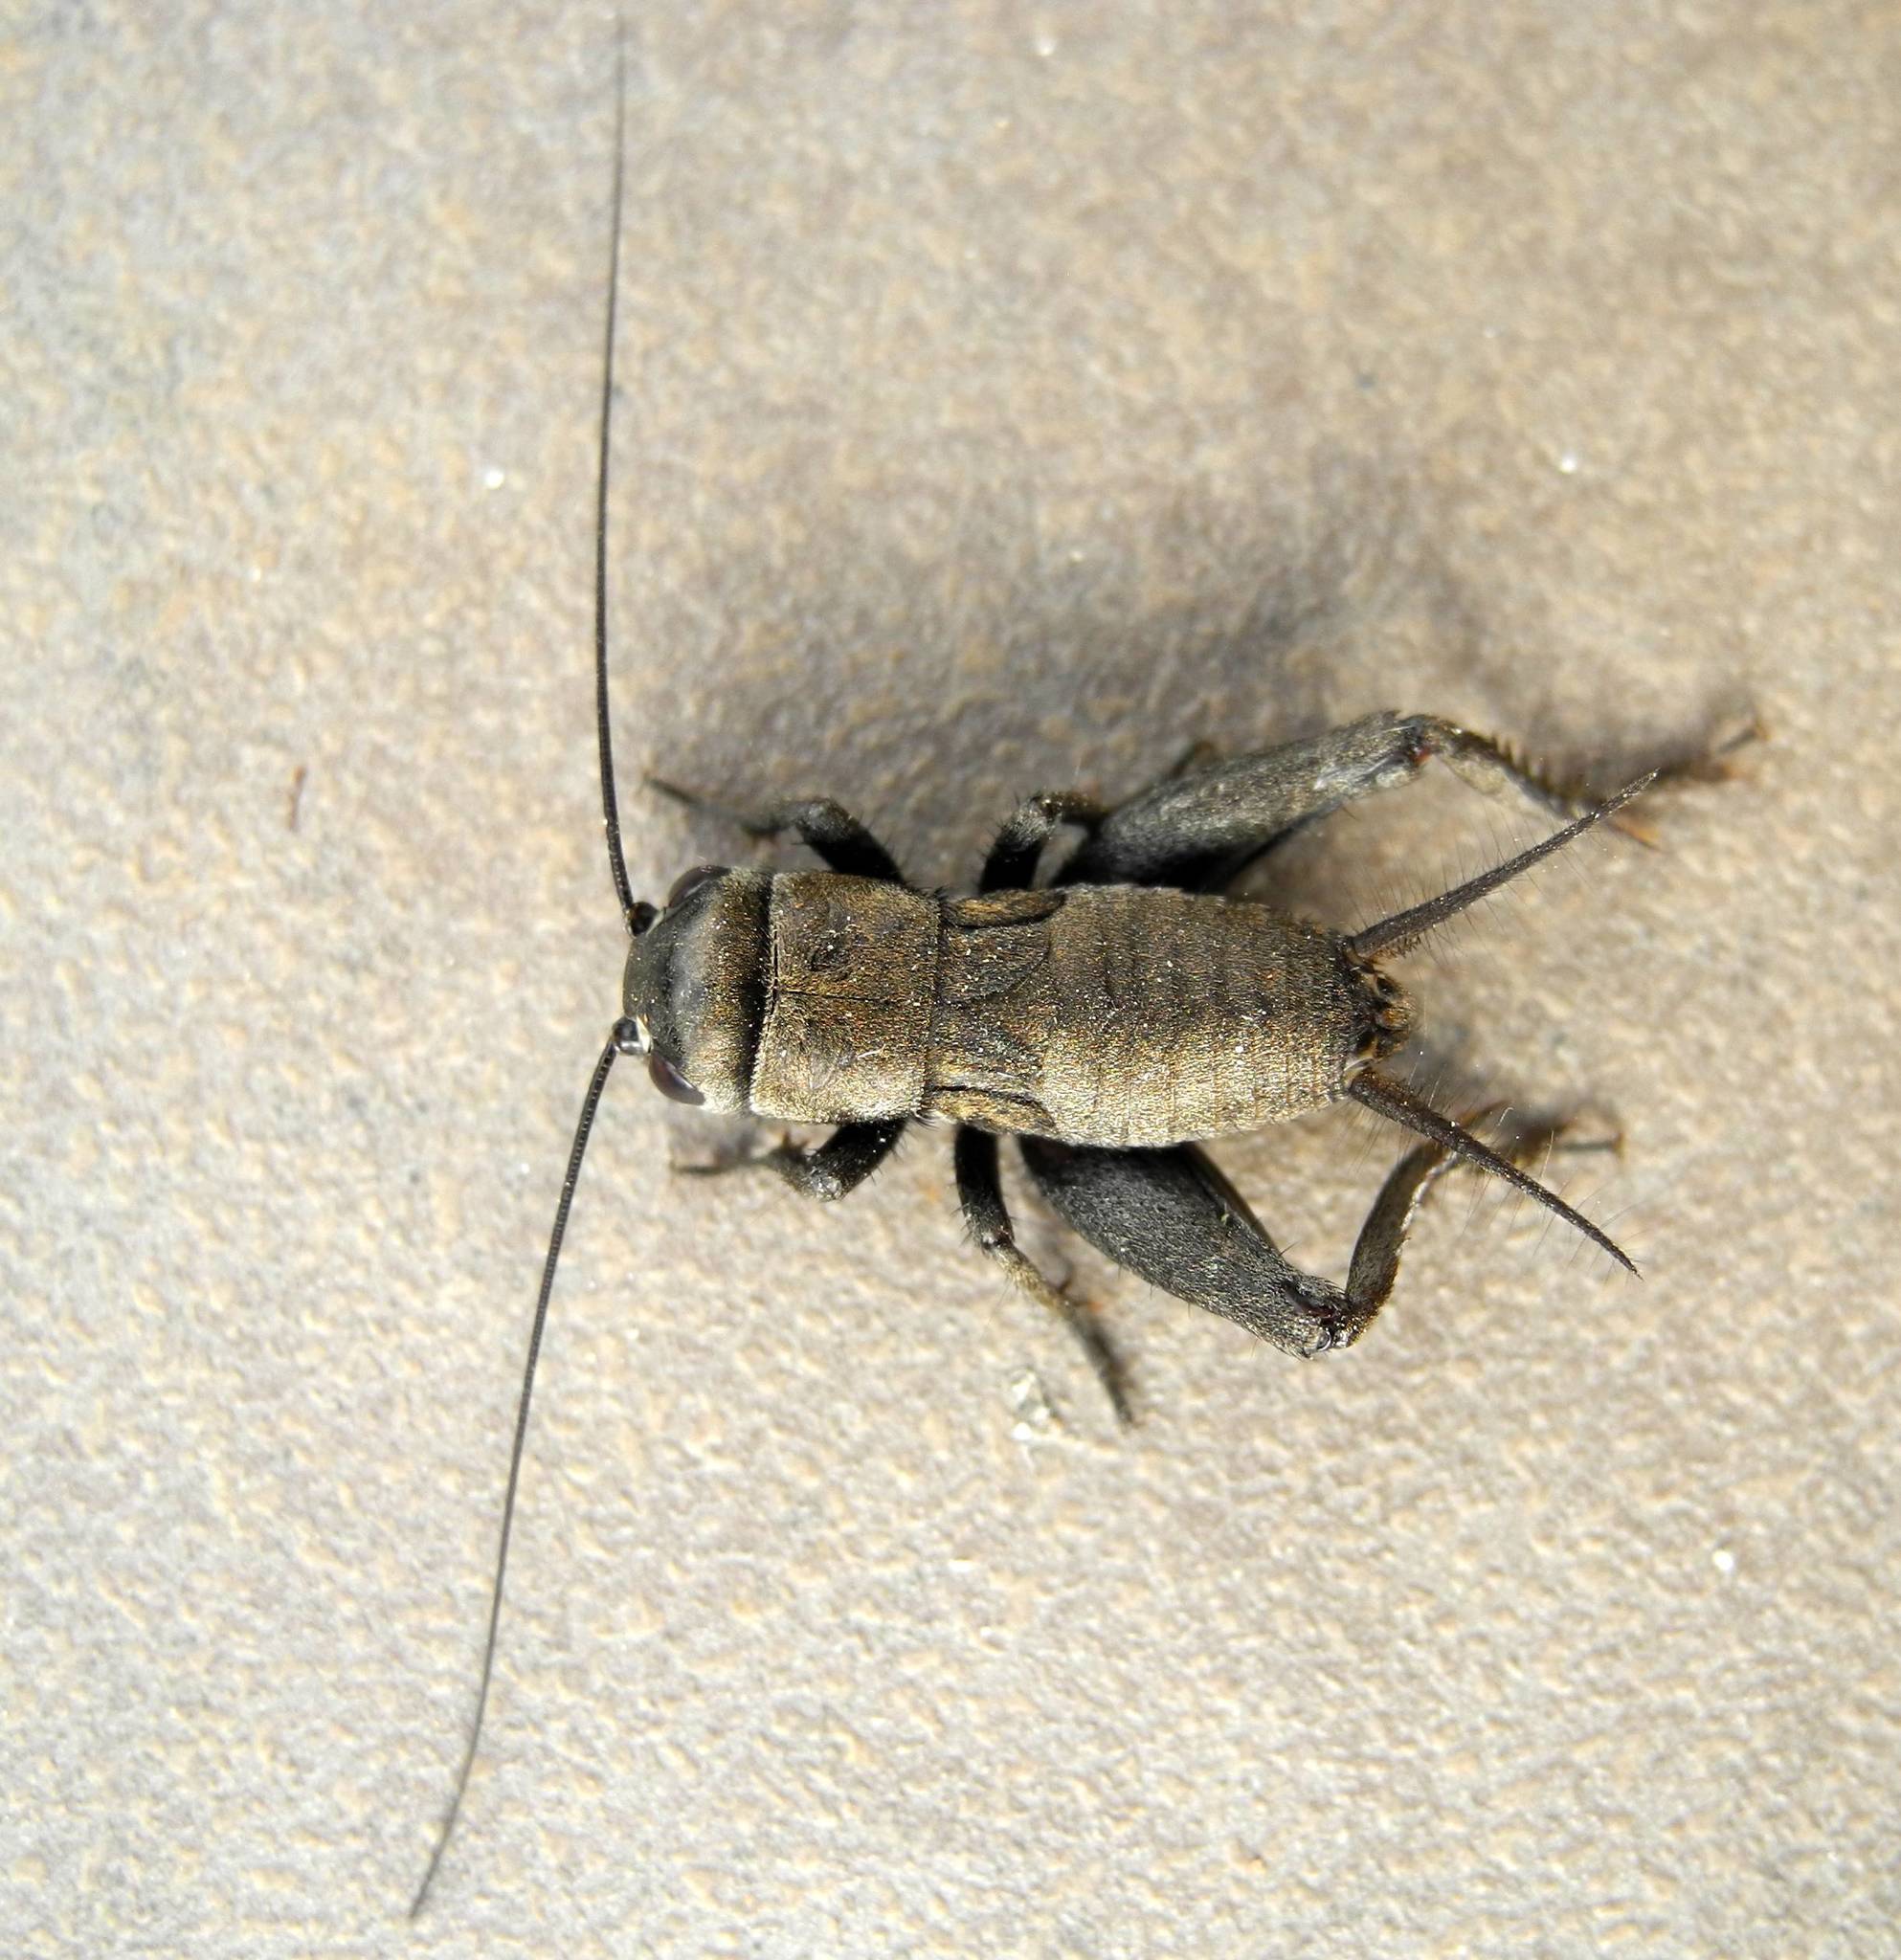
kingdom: Animalia
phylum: Arthropoda
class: Insecta
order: Orthoptera
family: Gryllidae
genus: Gryllus
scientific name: Gryllus campestris
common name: Field cricket
